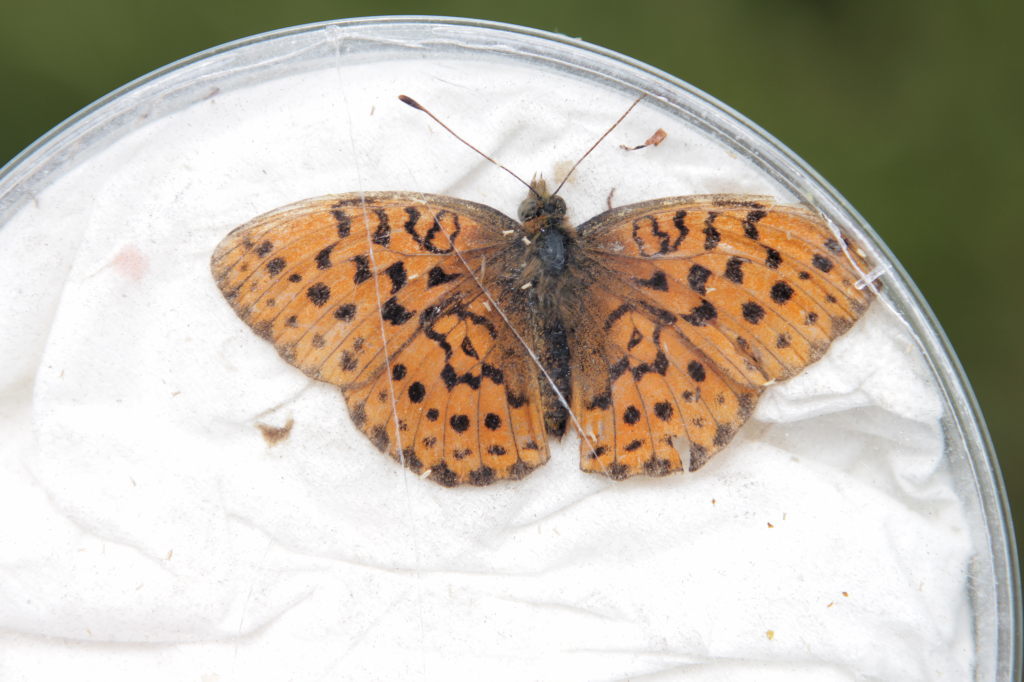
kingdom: Animalia
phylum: Arthropoda
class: Insecta
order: Lepidoptera
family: Nymphalidae
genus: Brenthis
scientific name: Brenthis daphne
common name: Marbled fritillary
